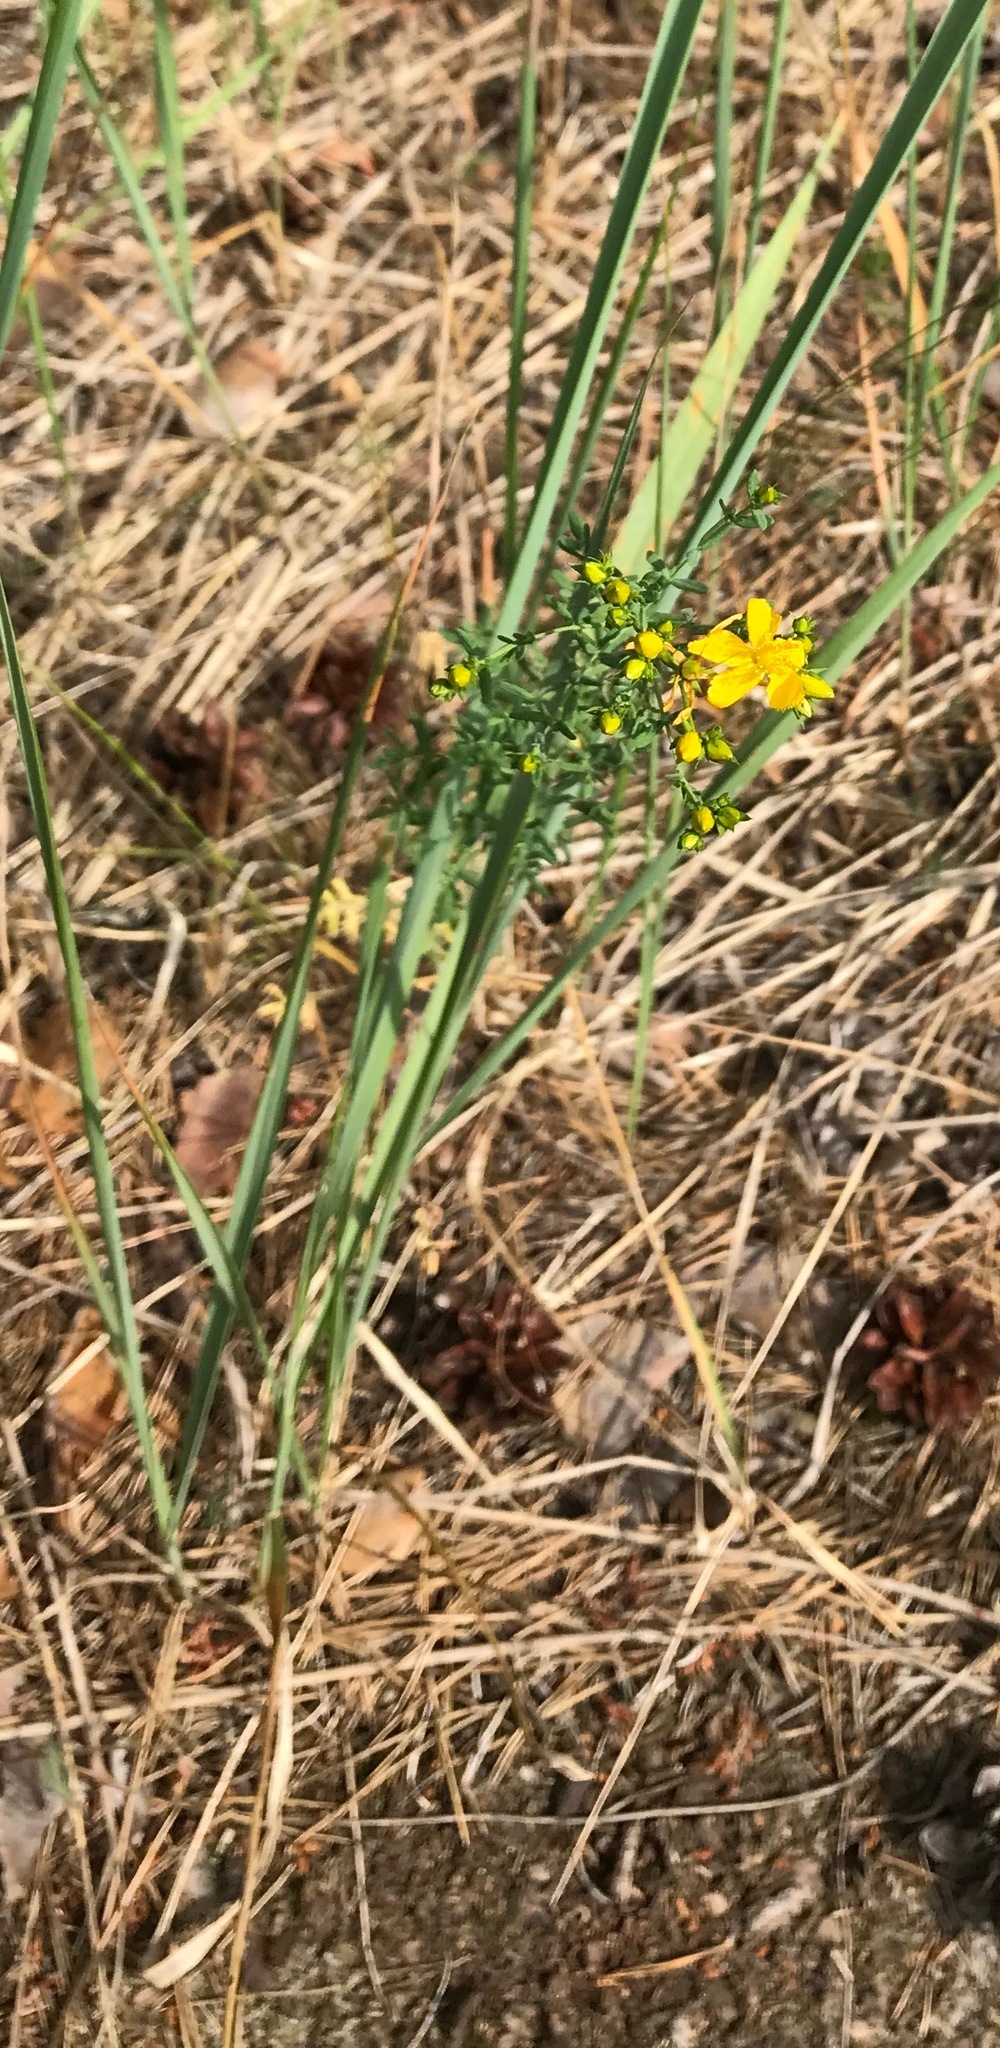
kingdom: Plantae
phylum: Tracheophyta
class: Magnoliopsida
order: Malpighiales
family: Hypericaceae
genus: Hypericum
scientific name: Hypericum perforatum
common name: Common st. johnswort
